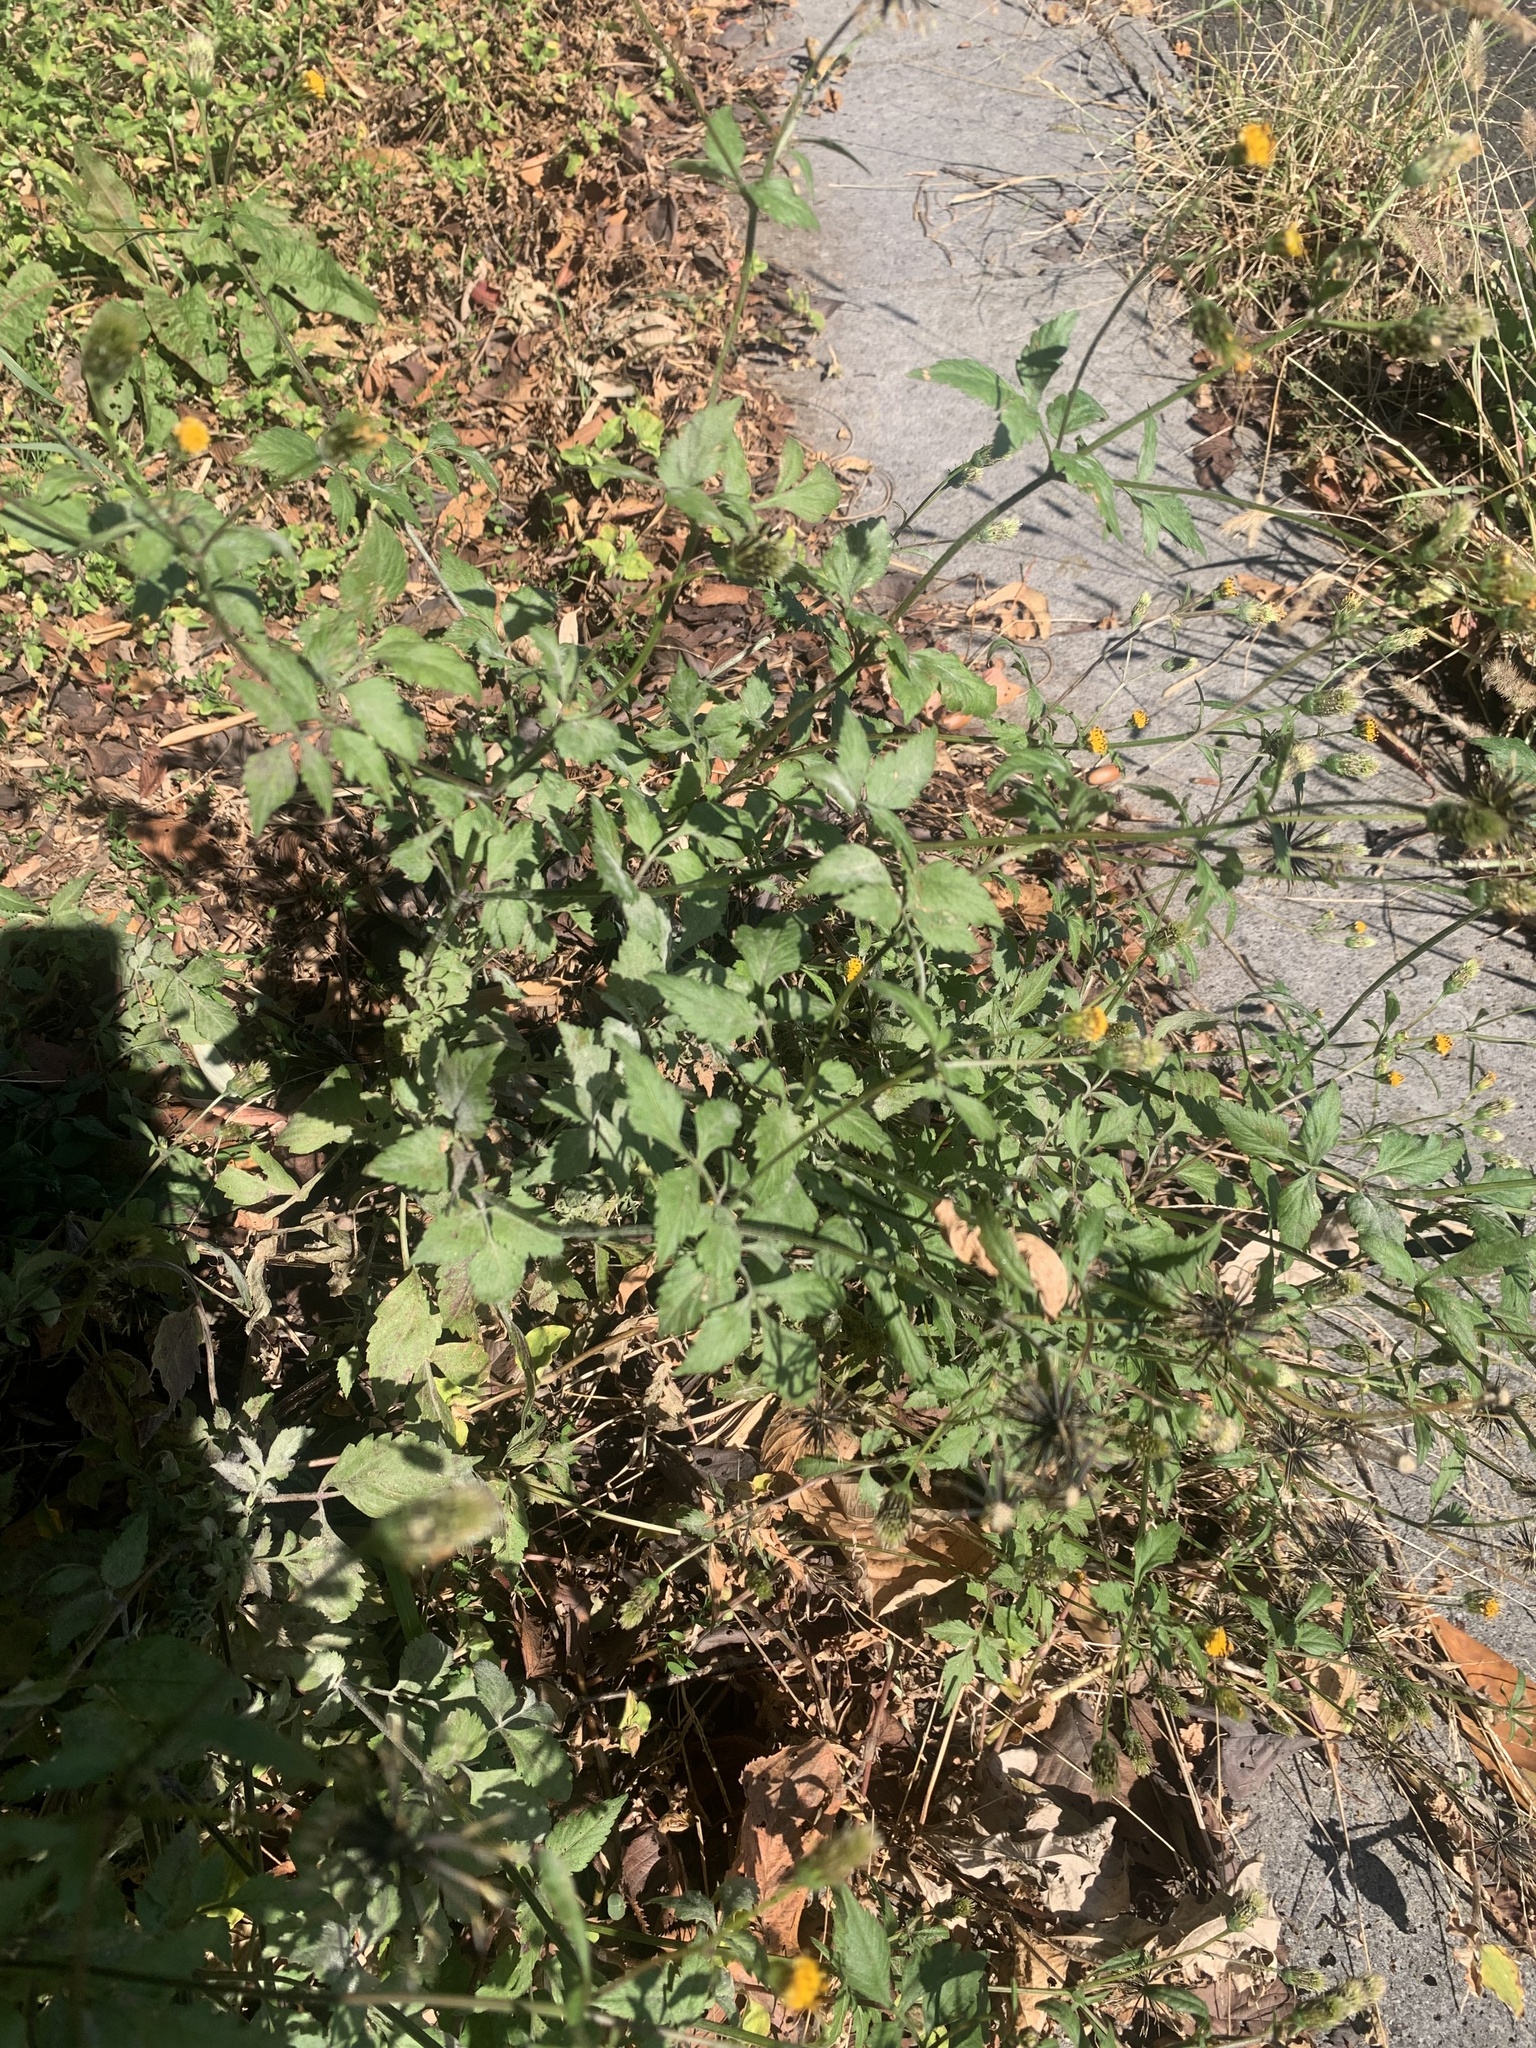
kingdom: Plantae
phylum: Tracheophyta
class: Magnoliopsida
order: Asterales
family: Asteraceae
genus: Bidens
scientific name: Bidens pilosa
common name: Black-jack
